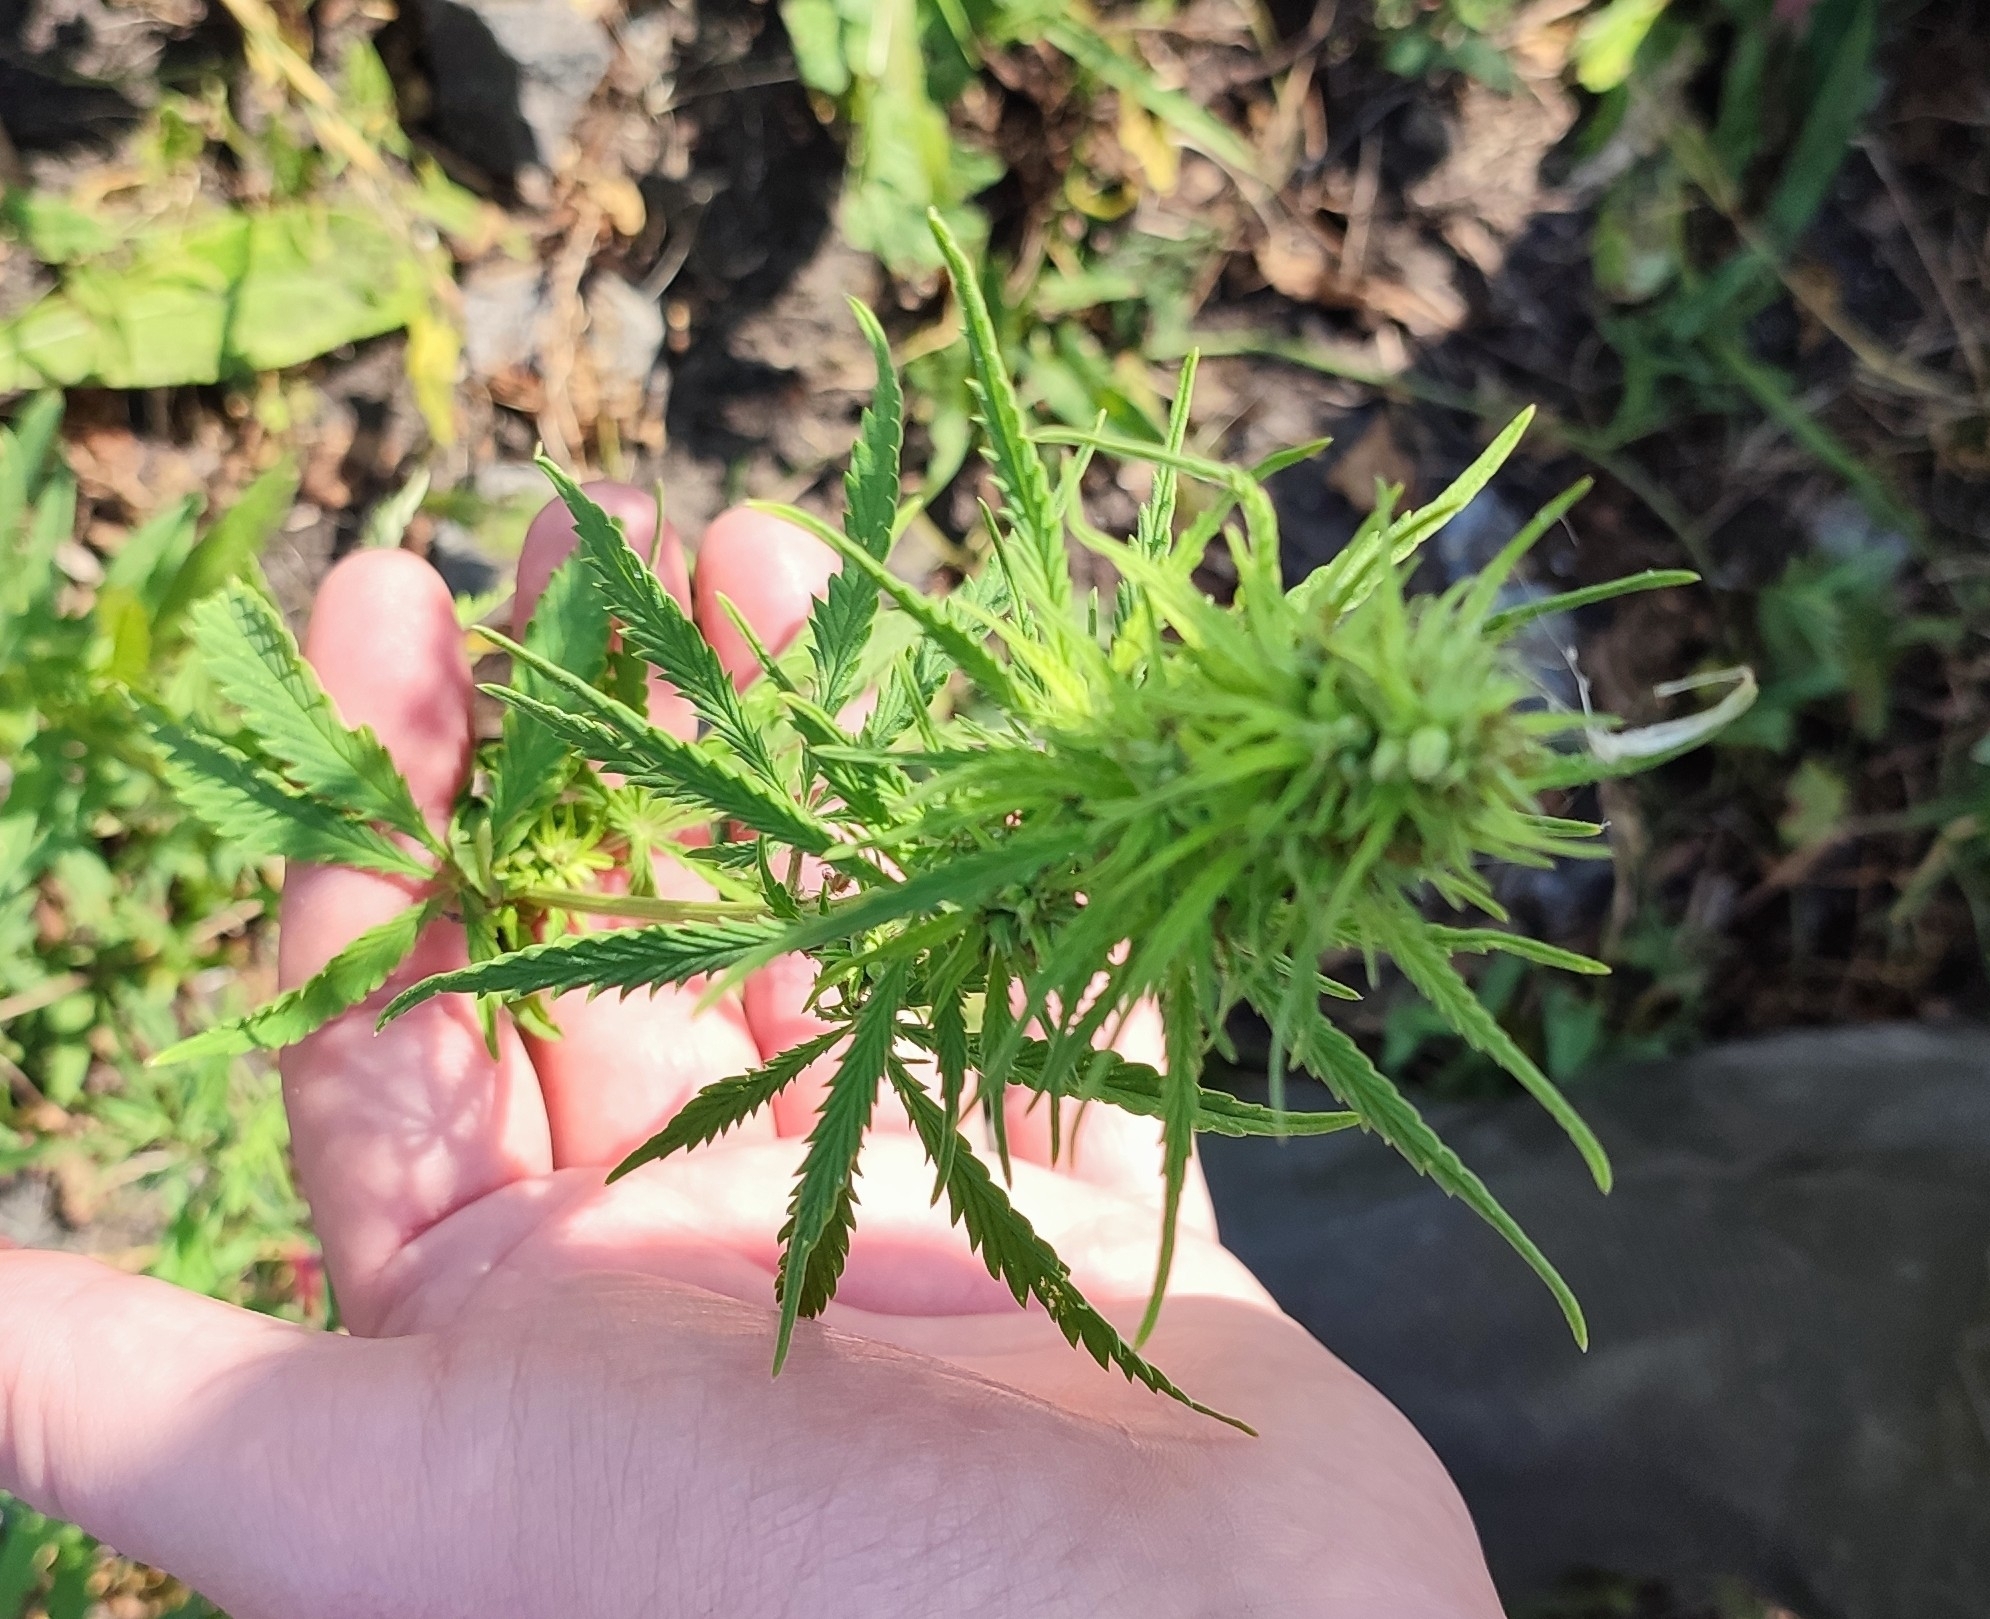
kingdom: Plantae
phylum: Tracheophyta
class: Magnoliopsida
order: Rosales
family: Cannabaceae
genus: Cannabis
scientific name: Cannabis sativa
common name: Hemp
